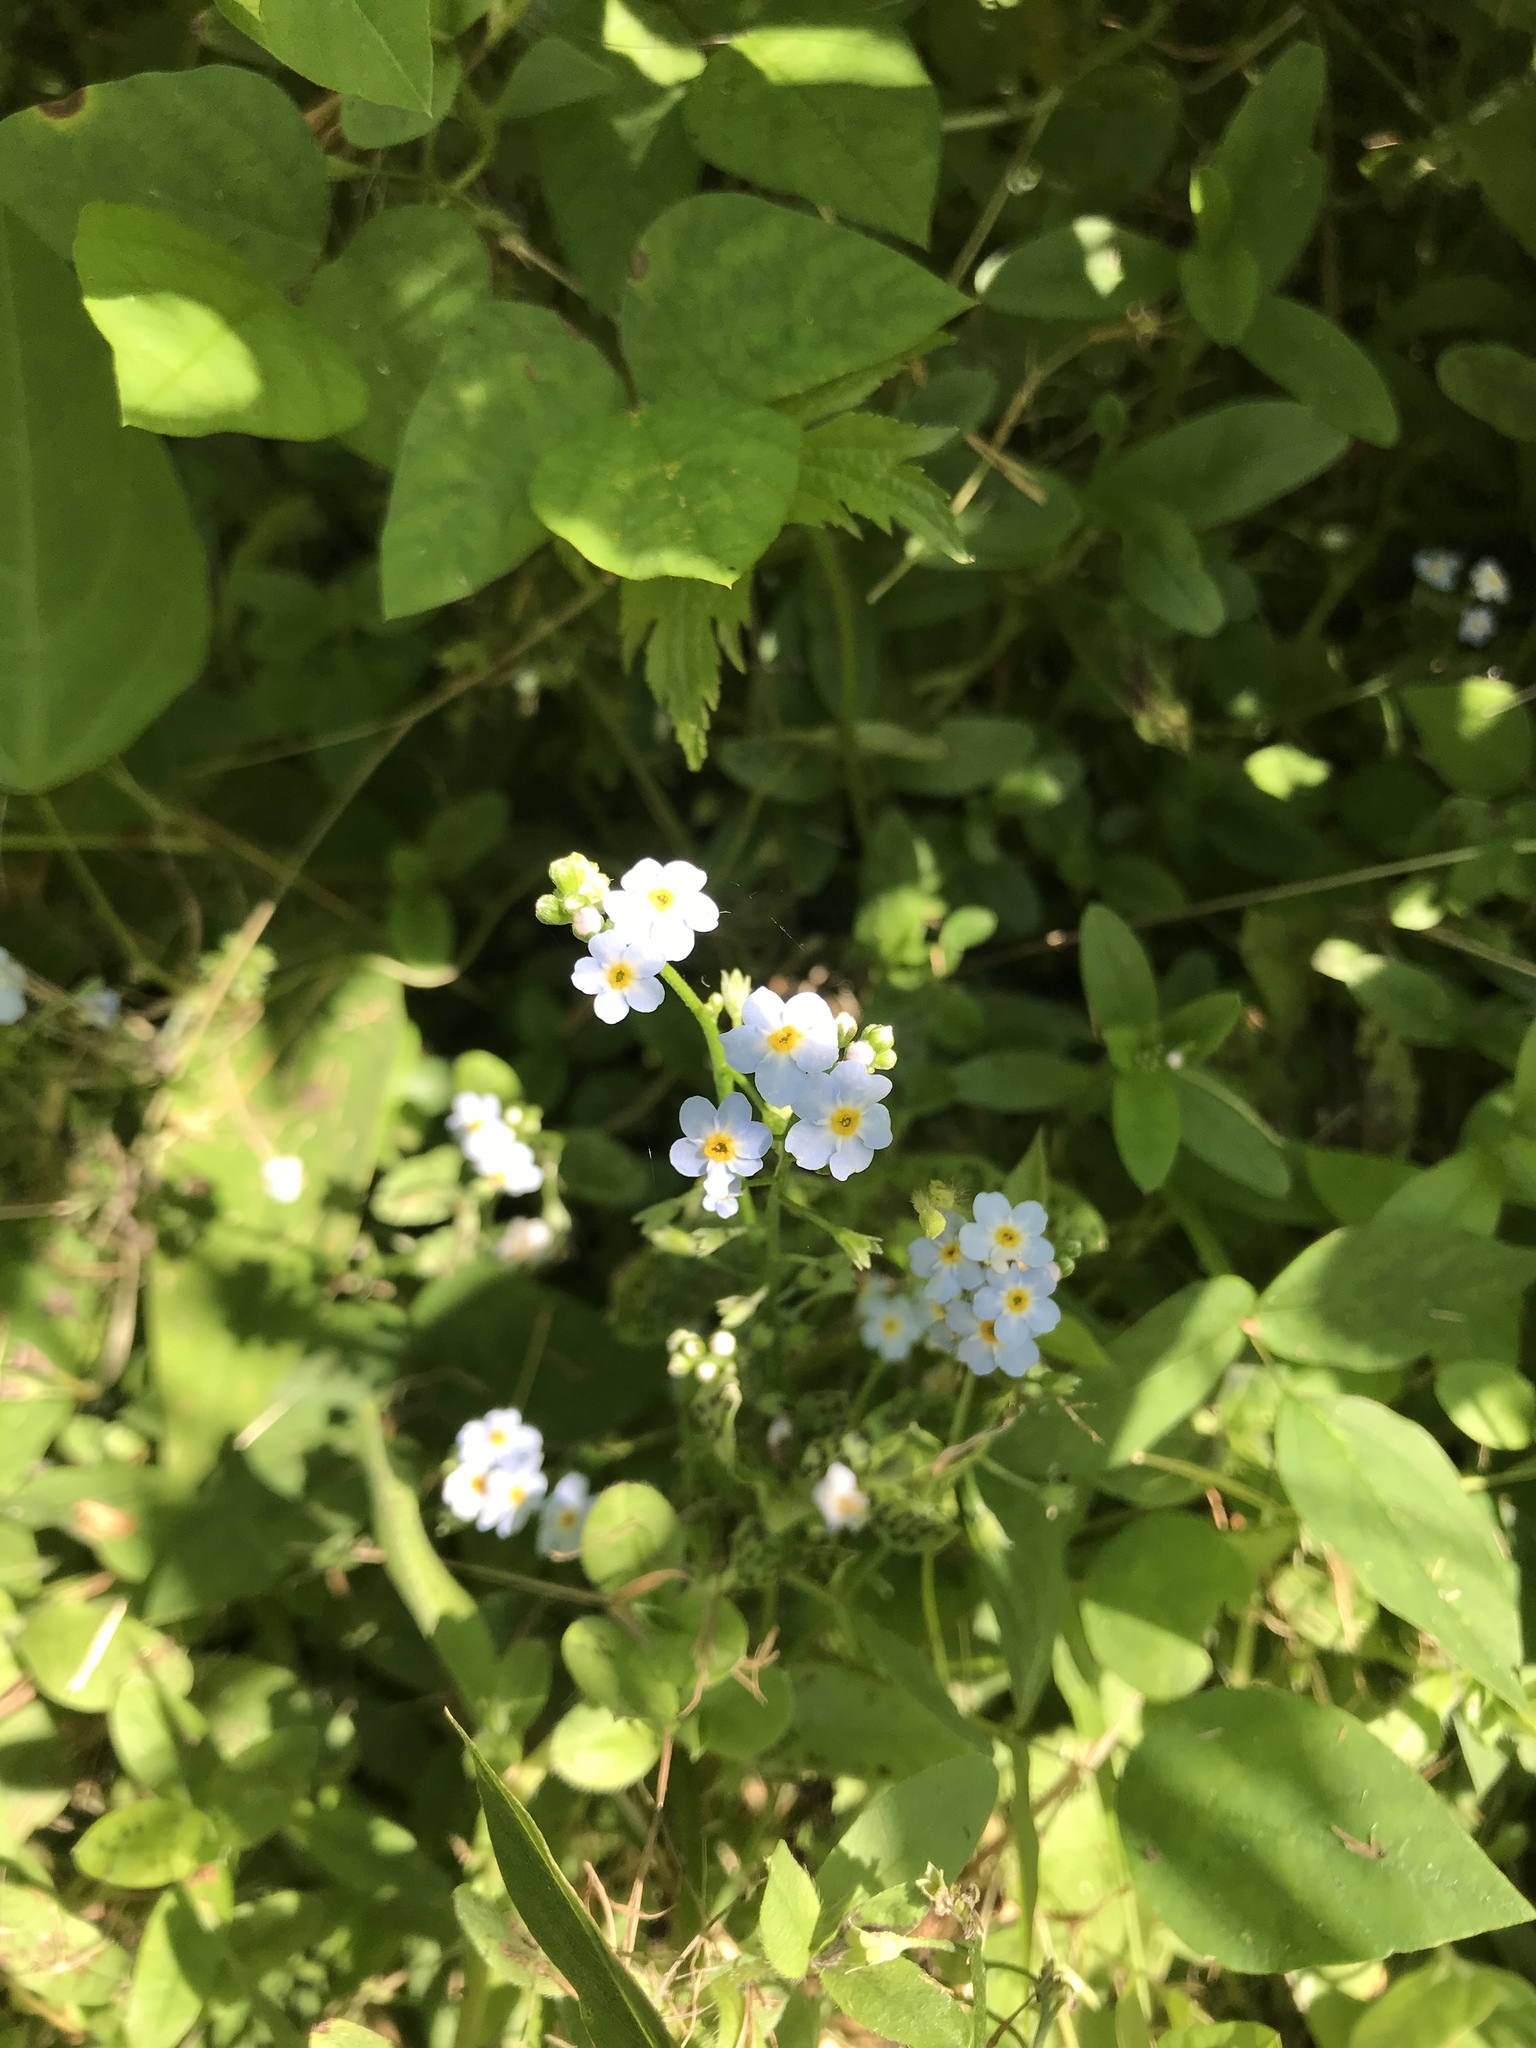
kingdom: Plantae
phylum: Tracheophyta
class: Magnoliopsida
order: Boraginales
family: Boraginaceae
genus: Myosotis
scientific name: Myosotis scorpioides
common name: Water forget-me-not
